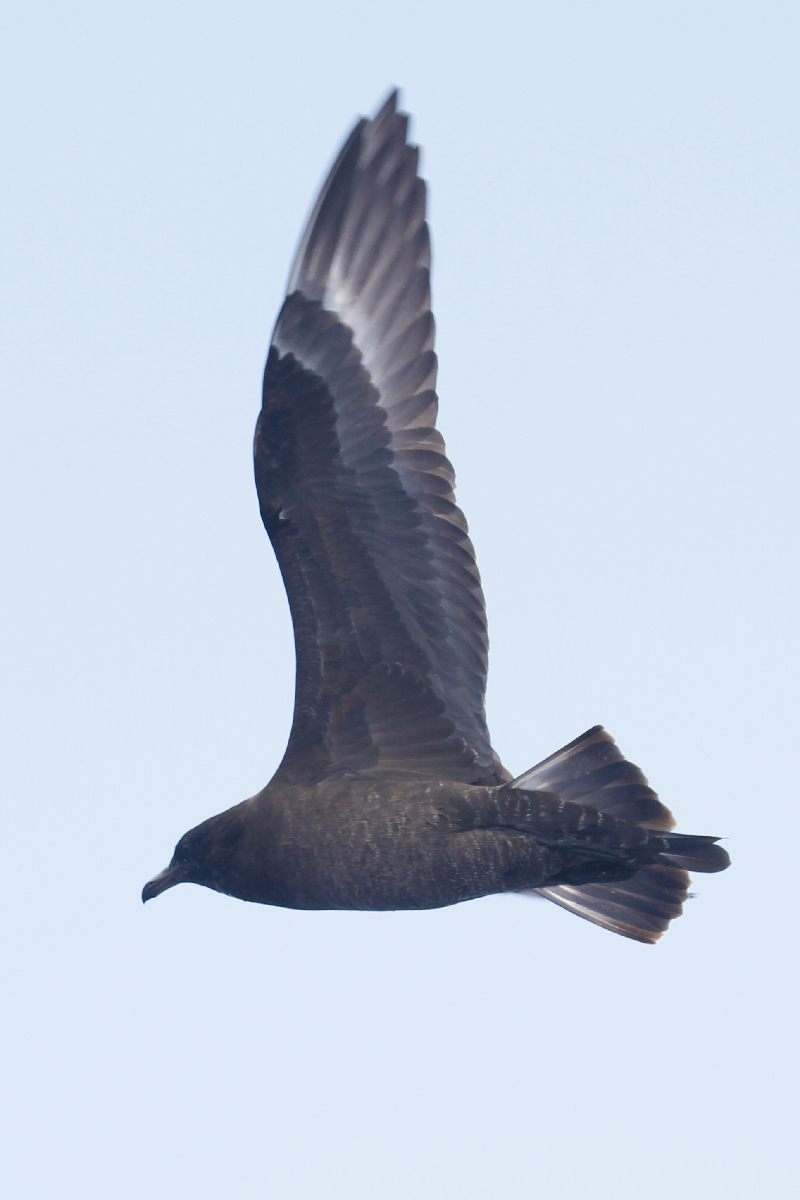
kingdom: Animalia
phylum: Chordata
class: Aves
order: Charadriiformes
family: Stercorariidae
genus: Stercorarius
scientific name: Stercorarius pomarinus
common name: Pomarine jaeger
